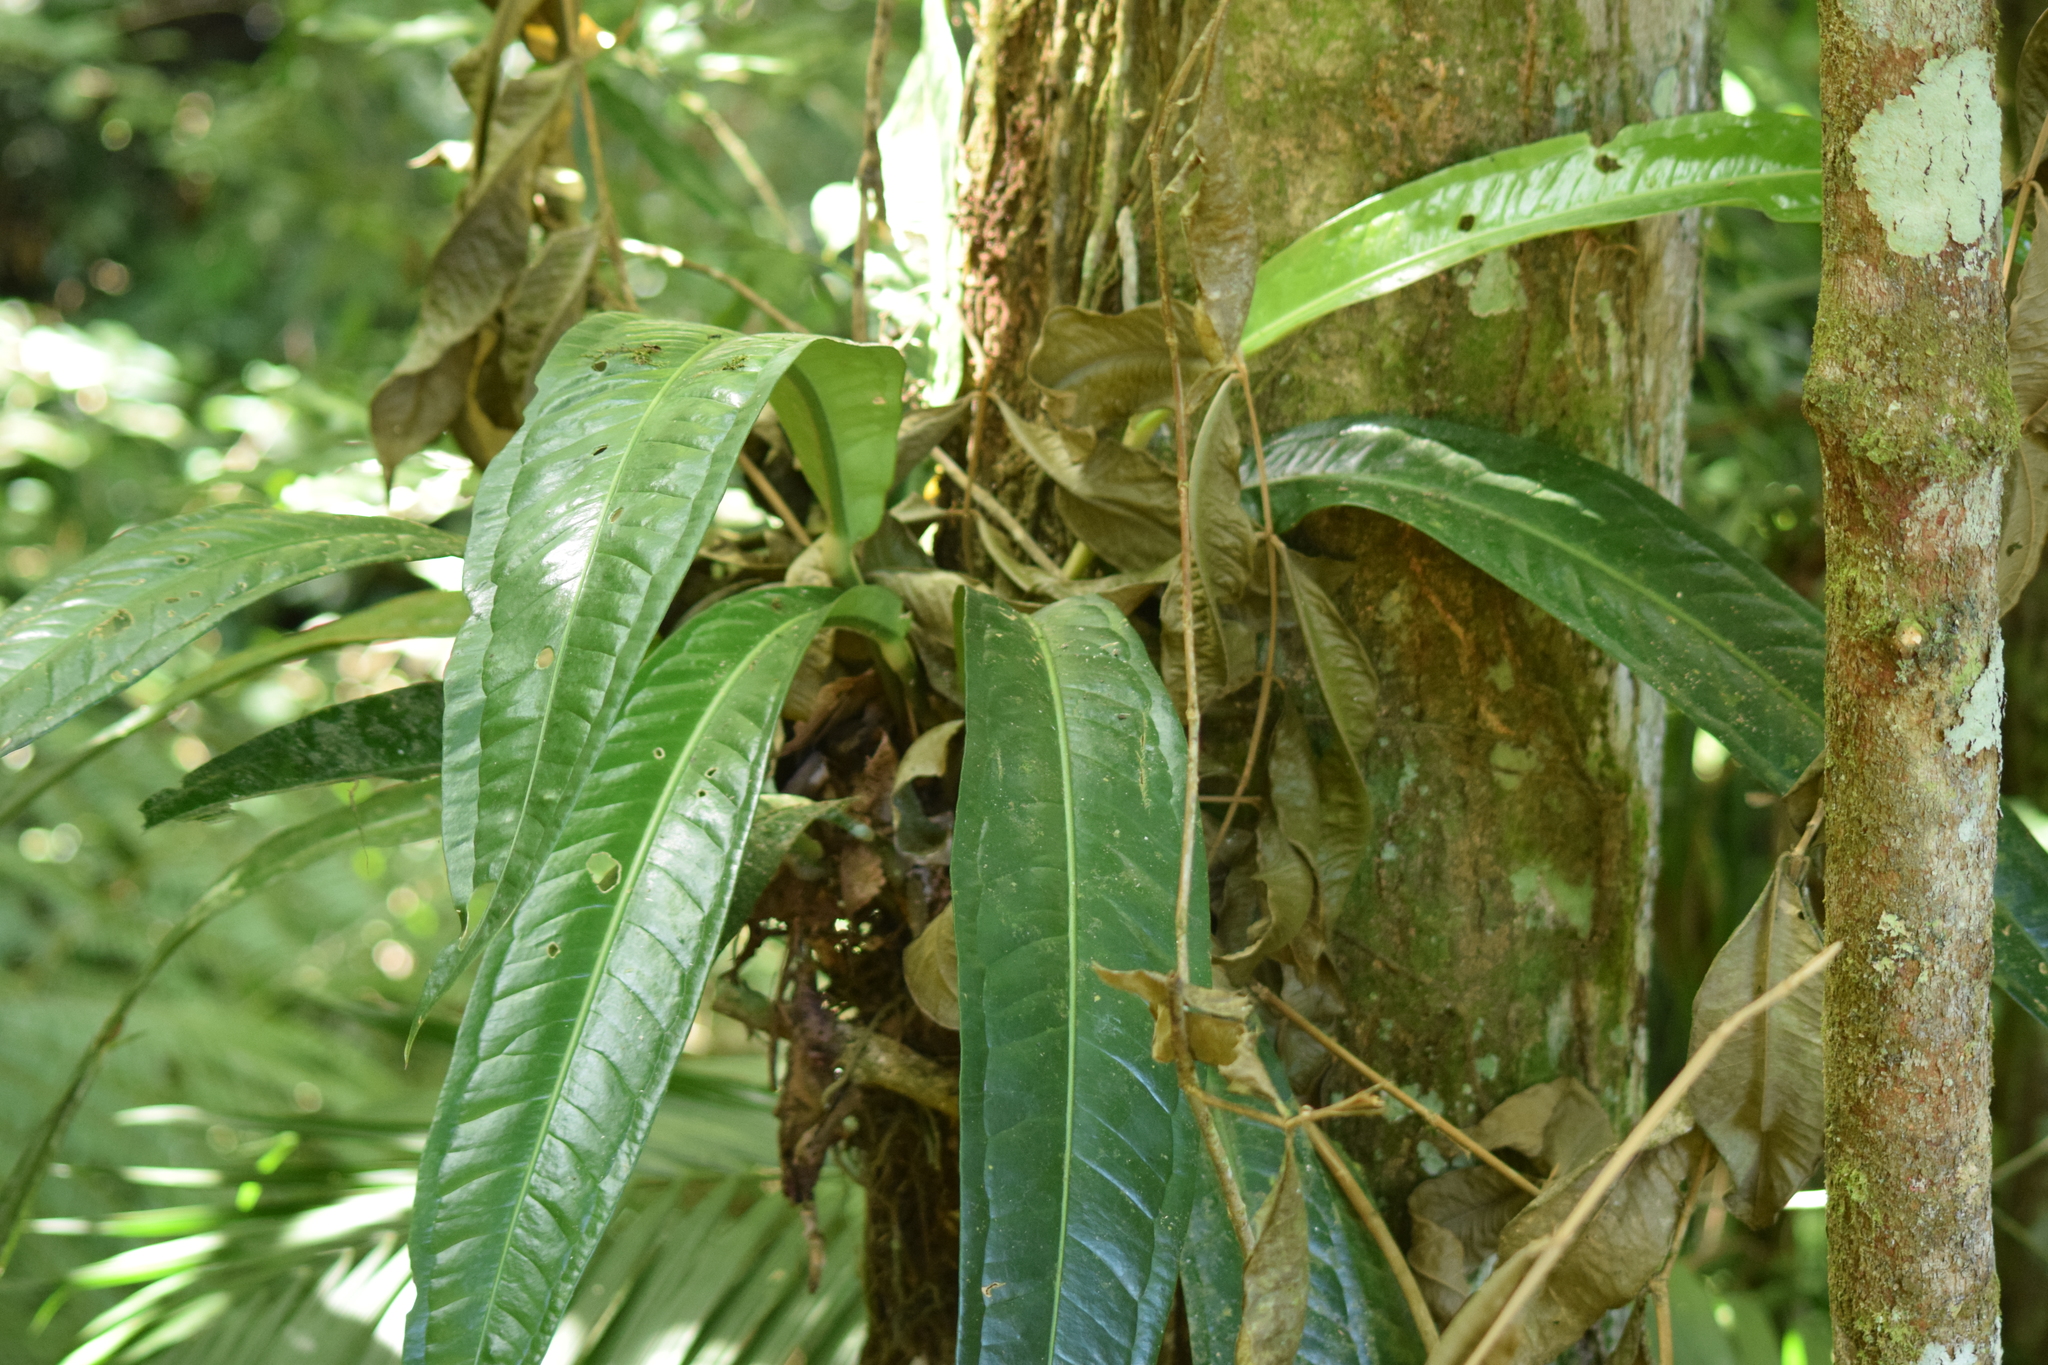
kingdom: Plantae
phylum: Tracheophyta
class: Liliopsida
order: Alismatales
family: Araceae
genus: Anthurium
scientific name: Anthurium sellowianum
